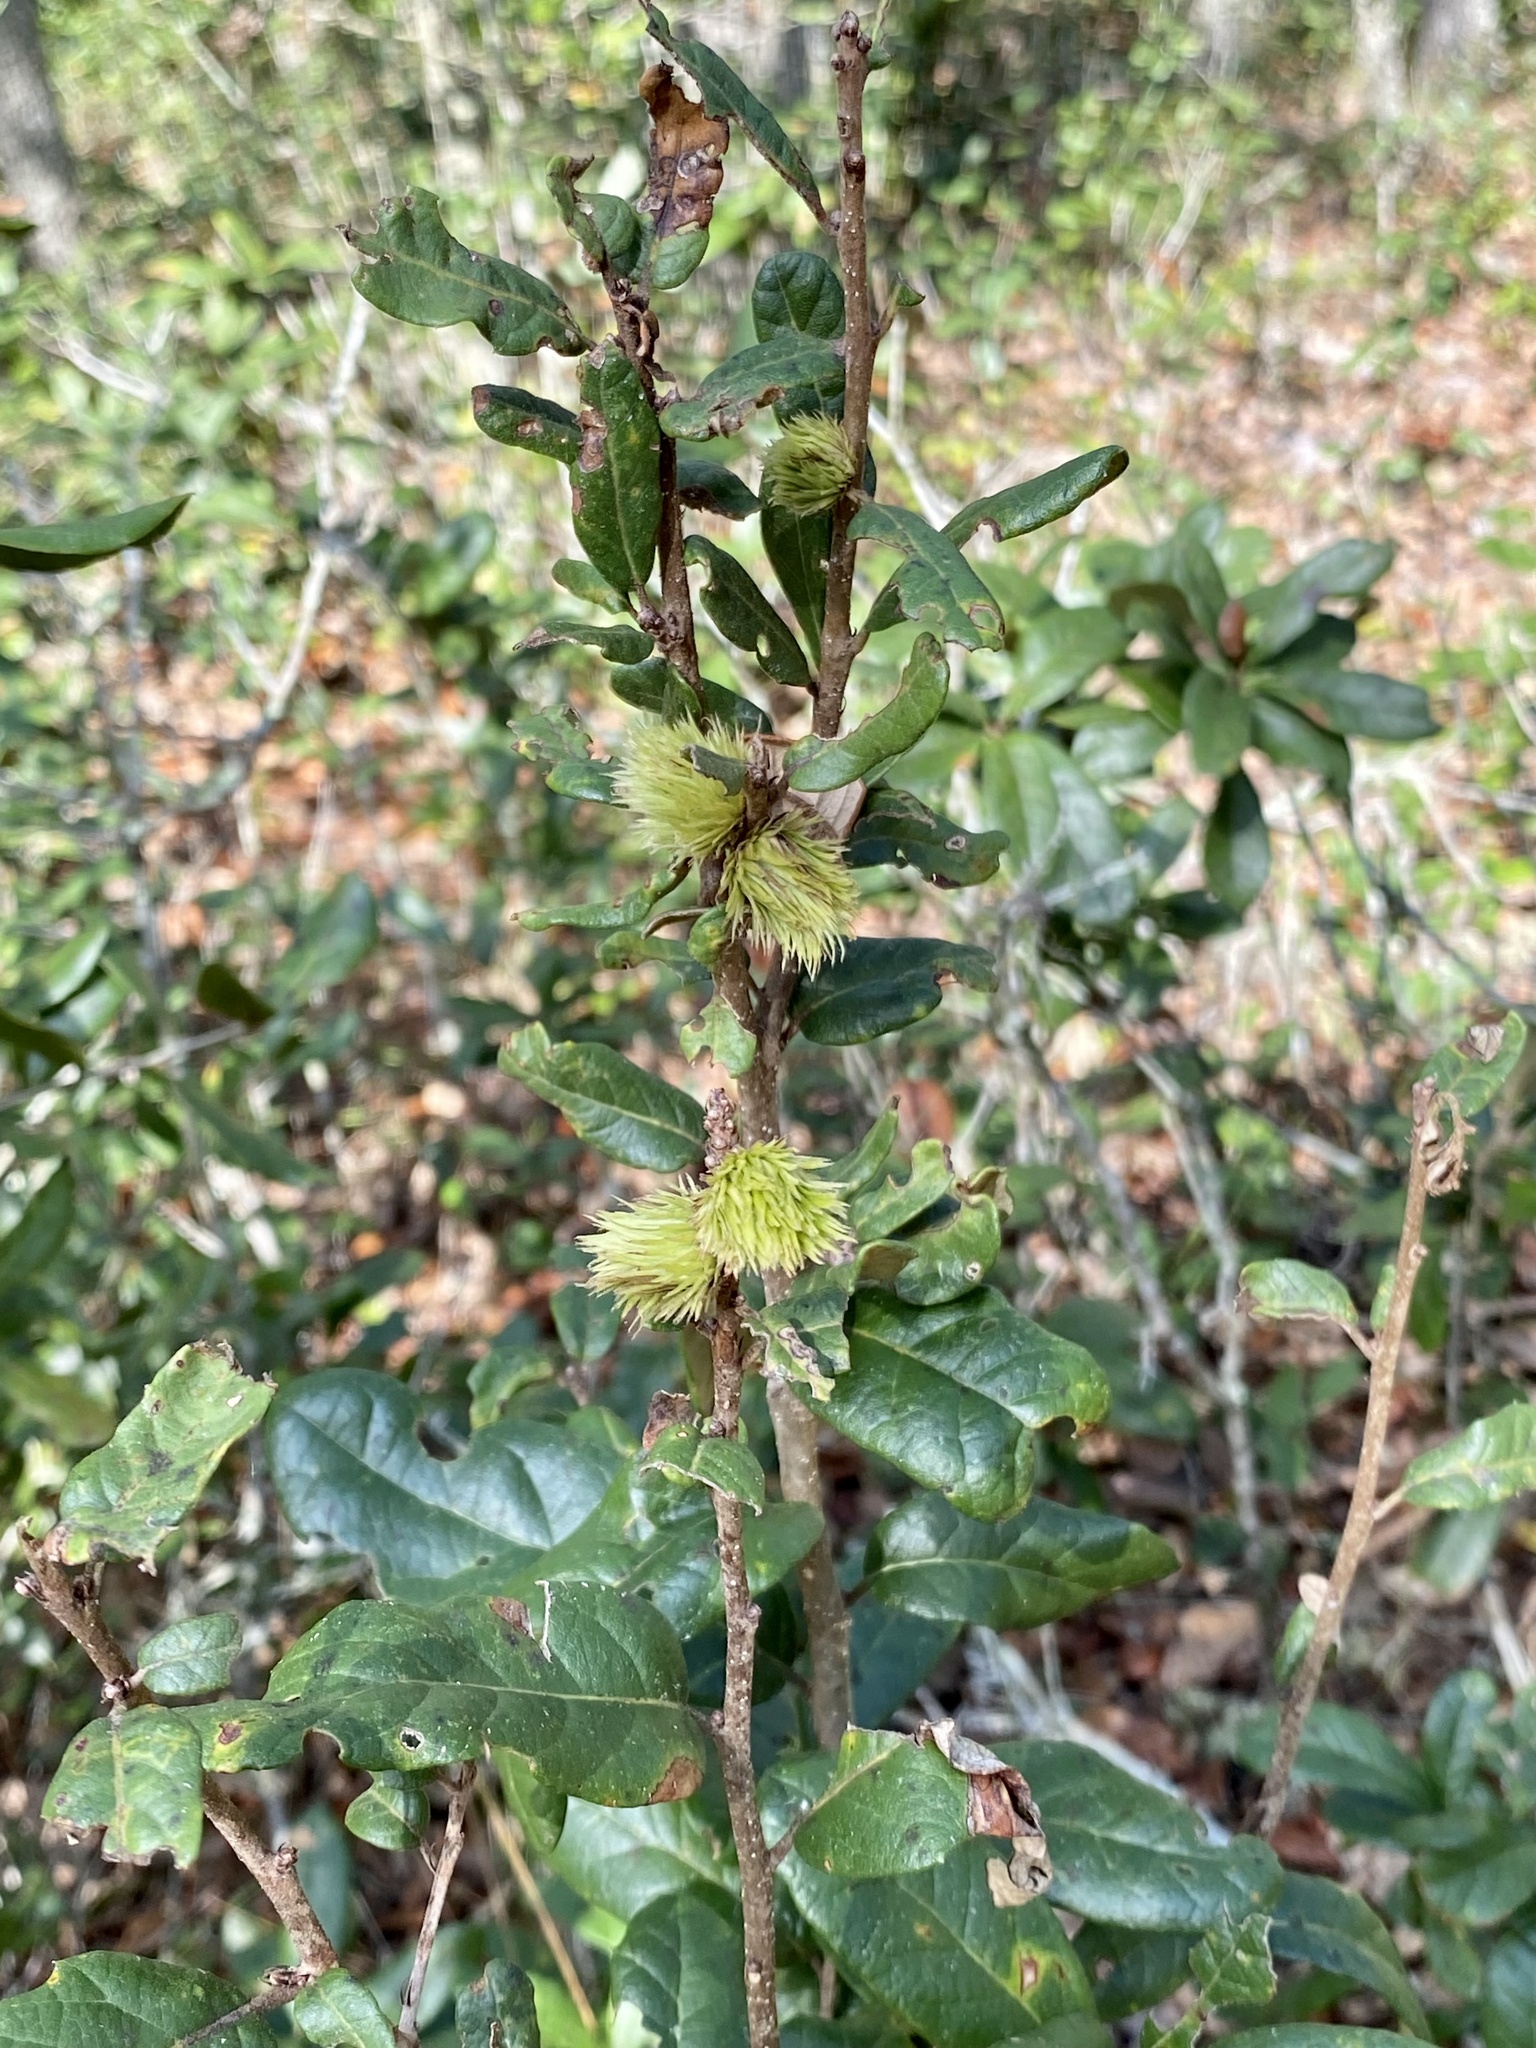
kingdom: Animalia
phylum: Arthropoda
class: Insecta
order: Hymenoptera
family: Cynipidae
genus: Andricus
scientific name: Andricus quercusfoliatus
